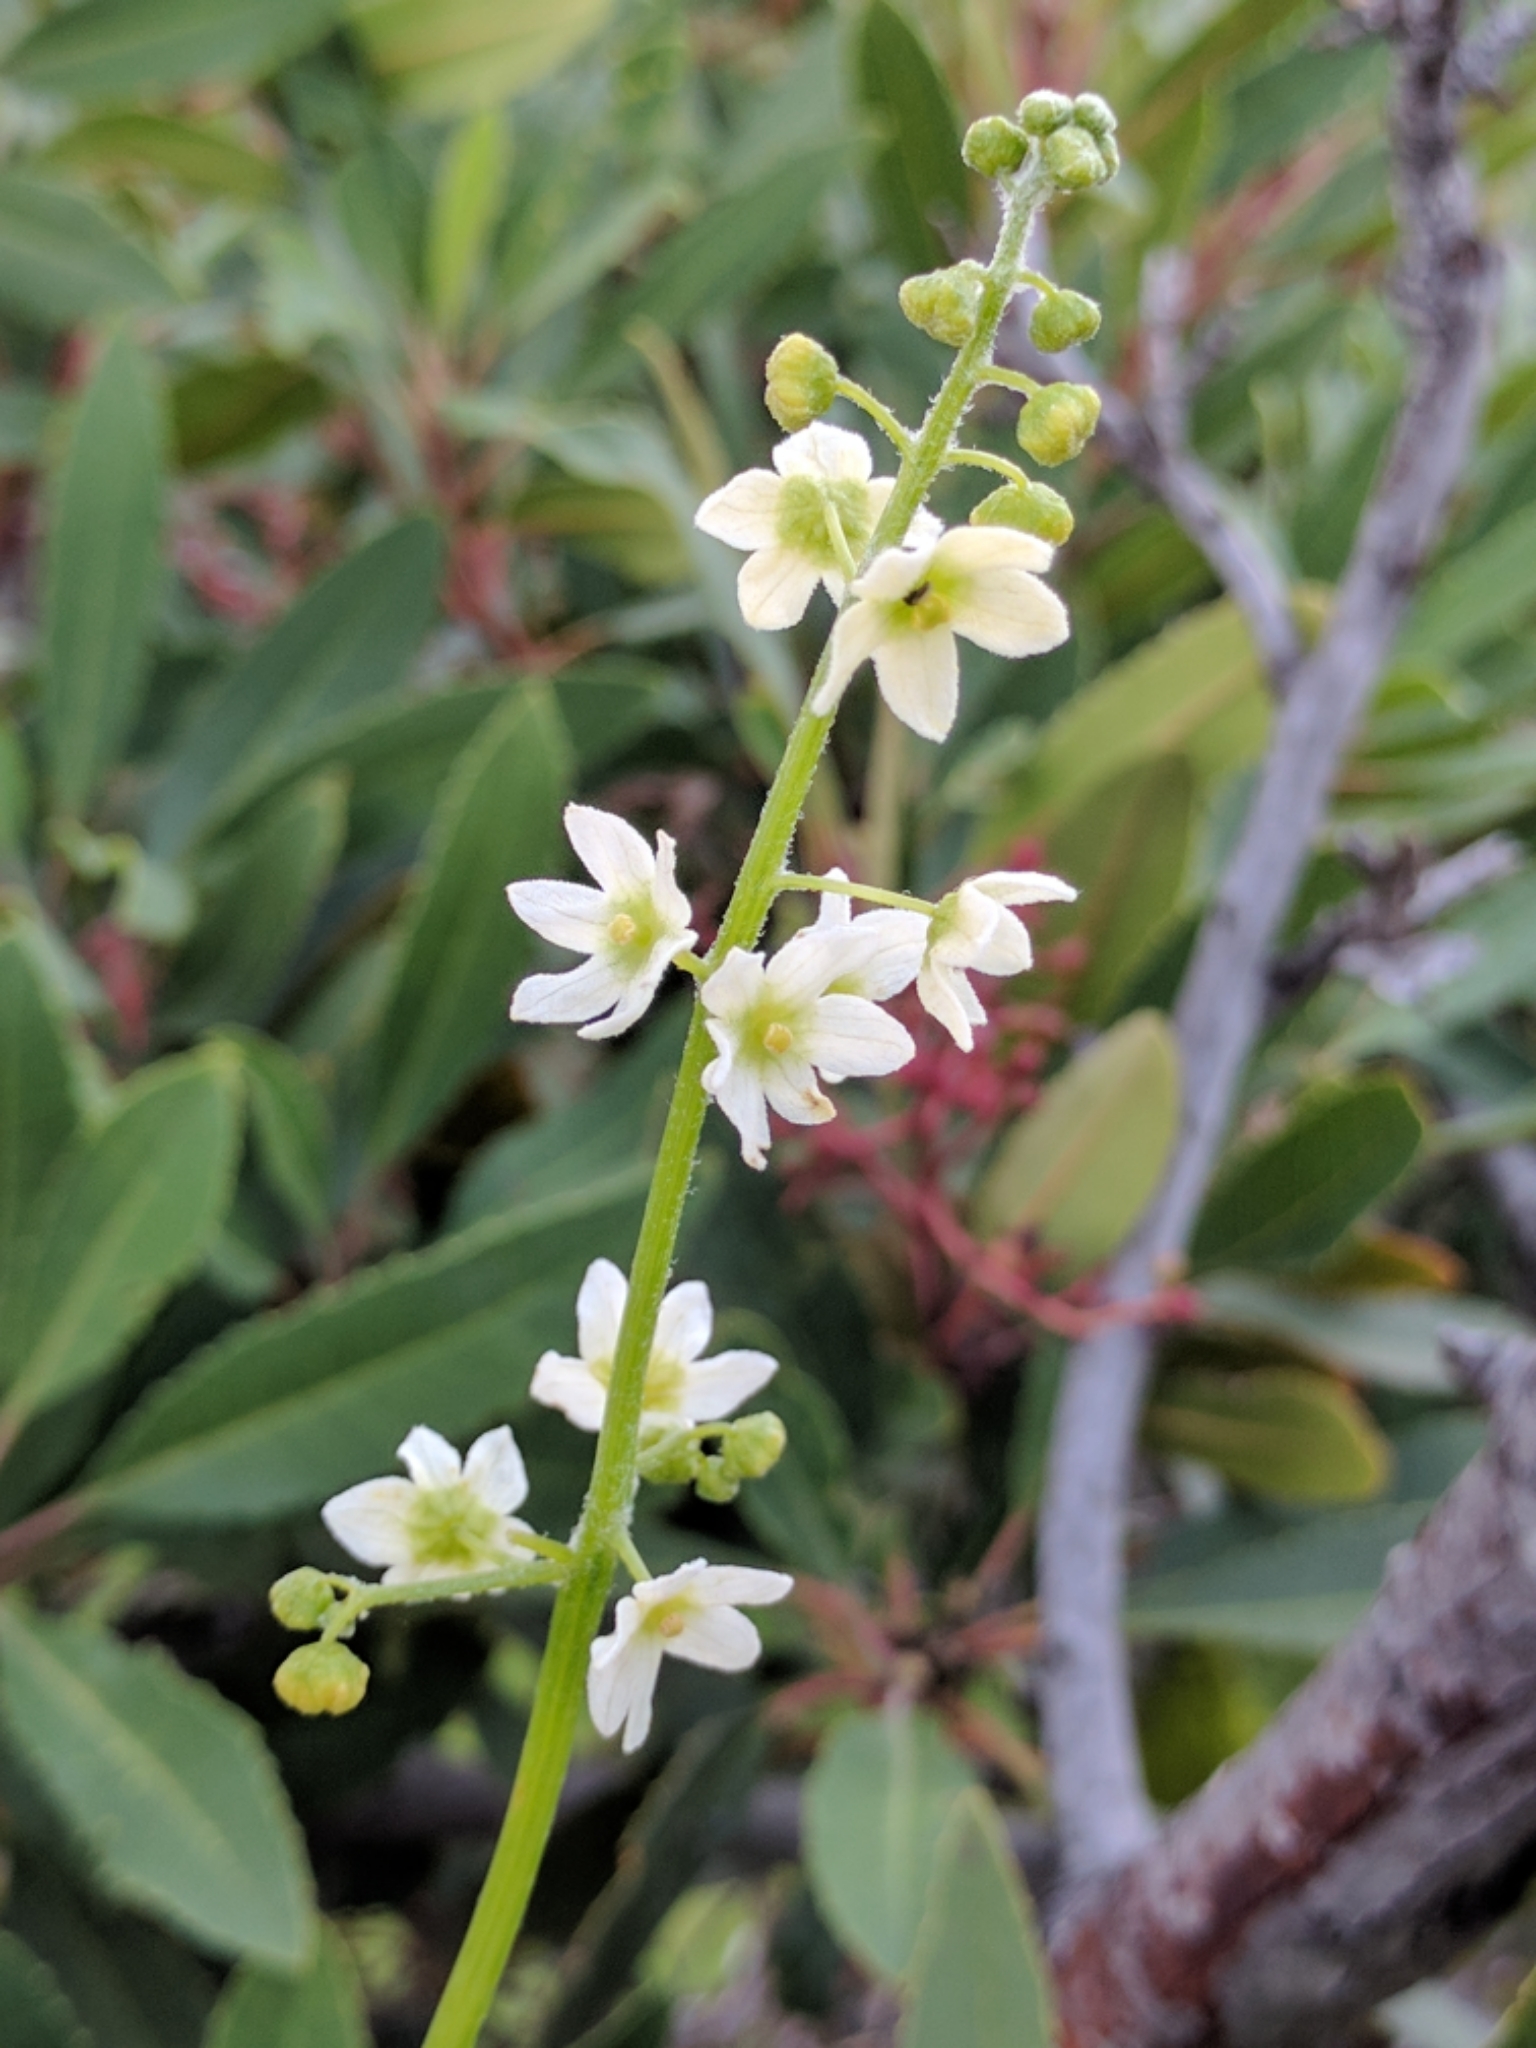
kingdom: Plantae
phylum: Tracheophyta
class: Magnoliopsida
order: Cucurbitales
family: Cucurbitaceae
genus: Marah
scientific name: Marah fabacea
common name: California manroot
